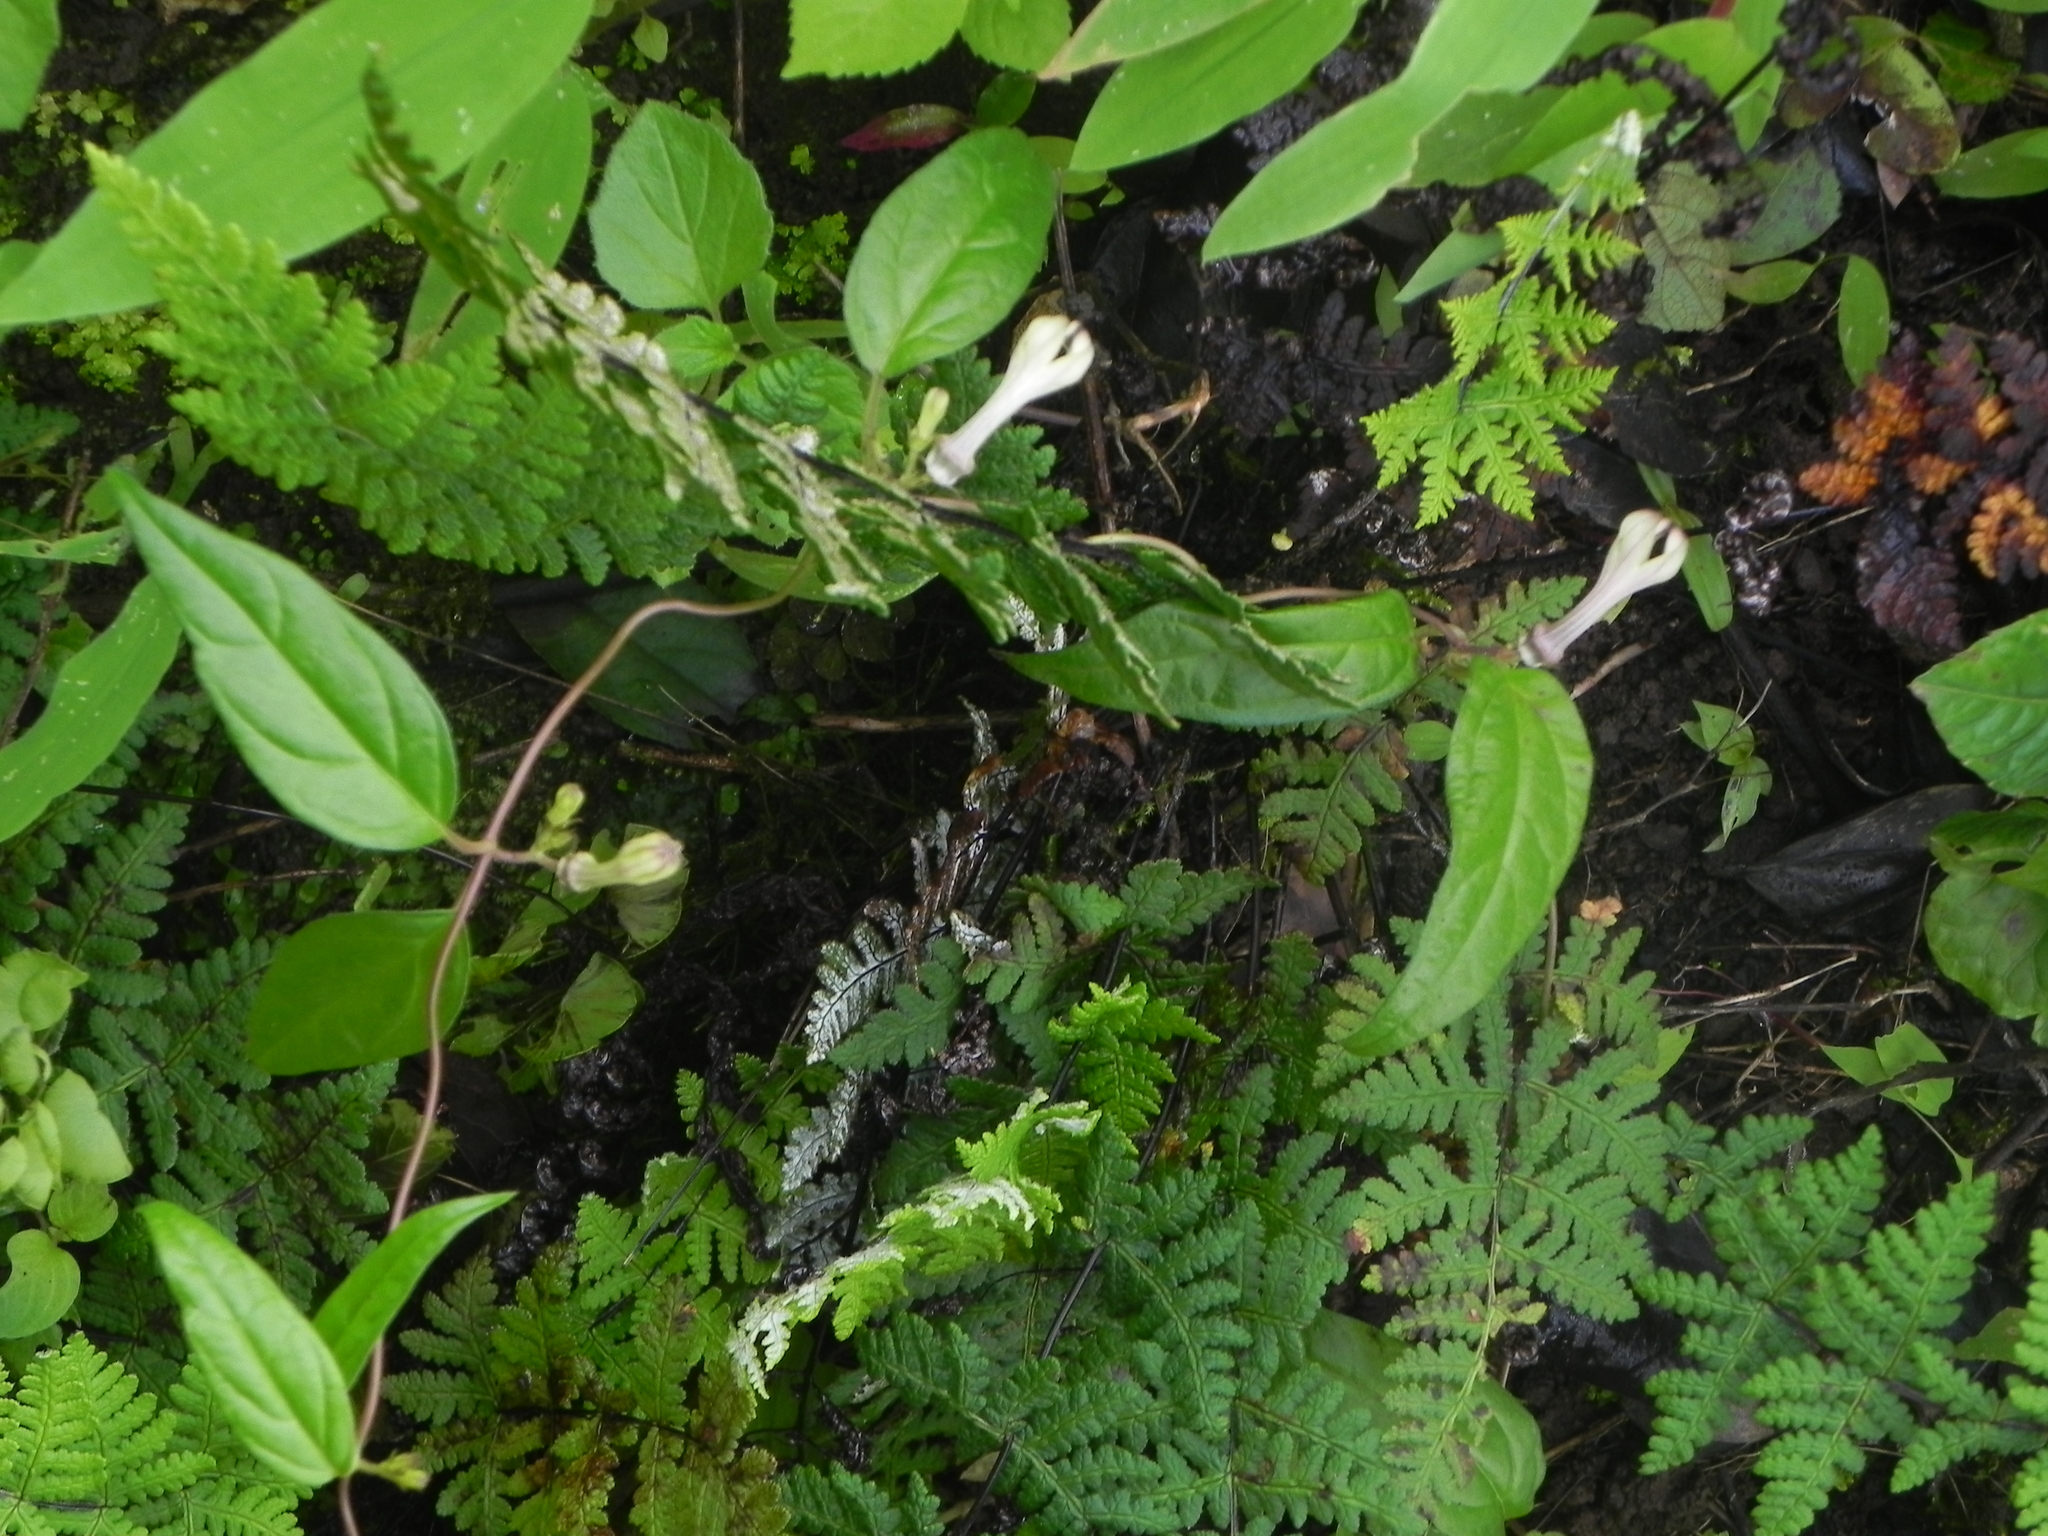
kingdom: Plantae
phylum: Tracheophyta
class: Magnoliopsida
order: Gentianales
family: Apocynaceae
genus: Ceropegia
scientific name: Ceropegia media
